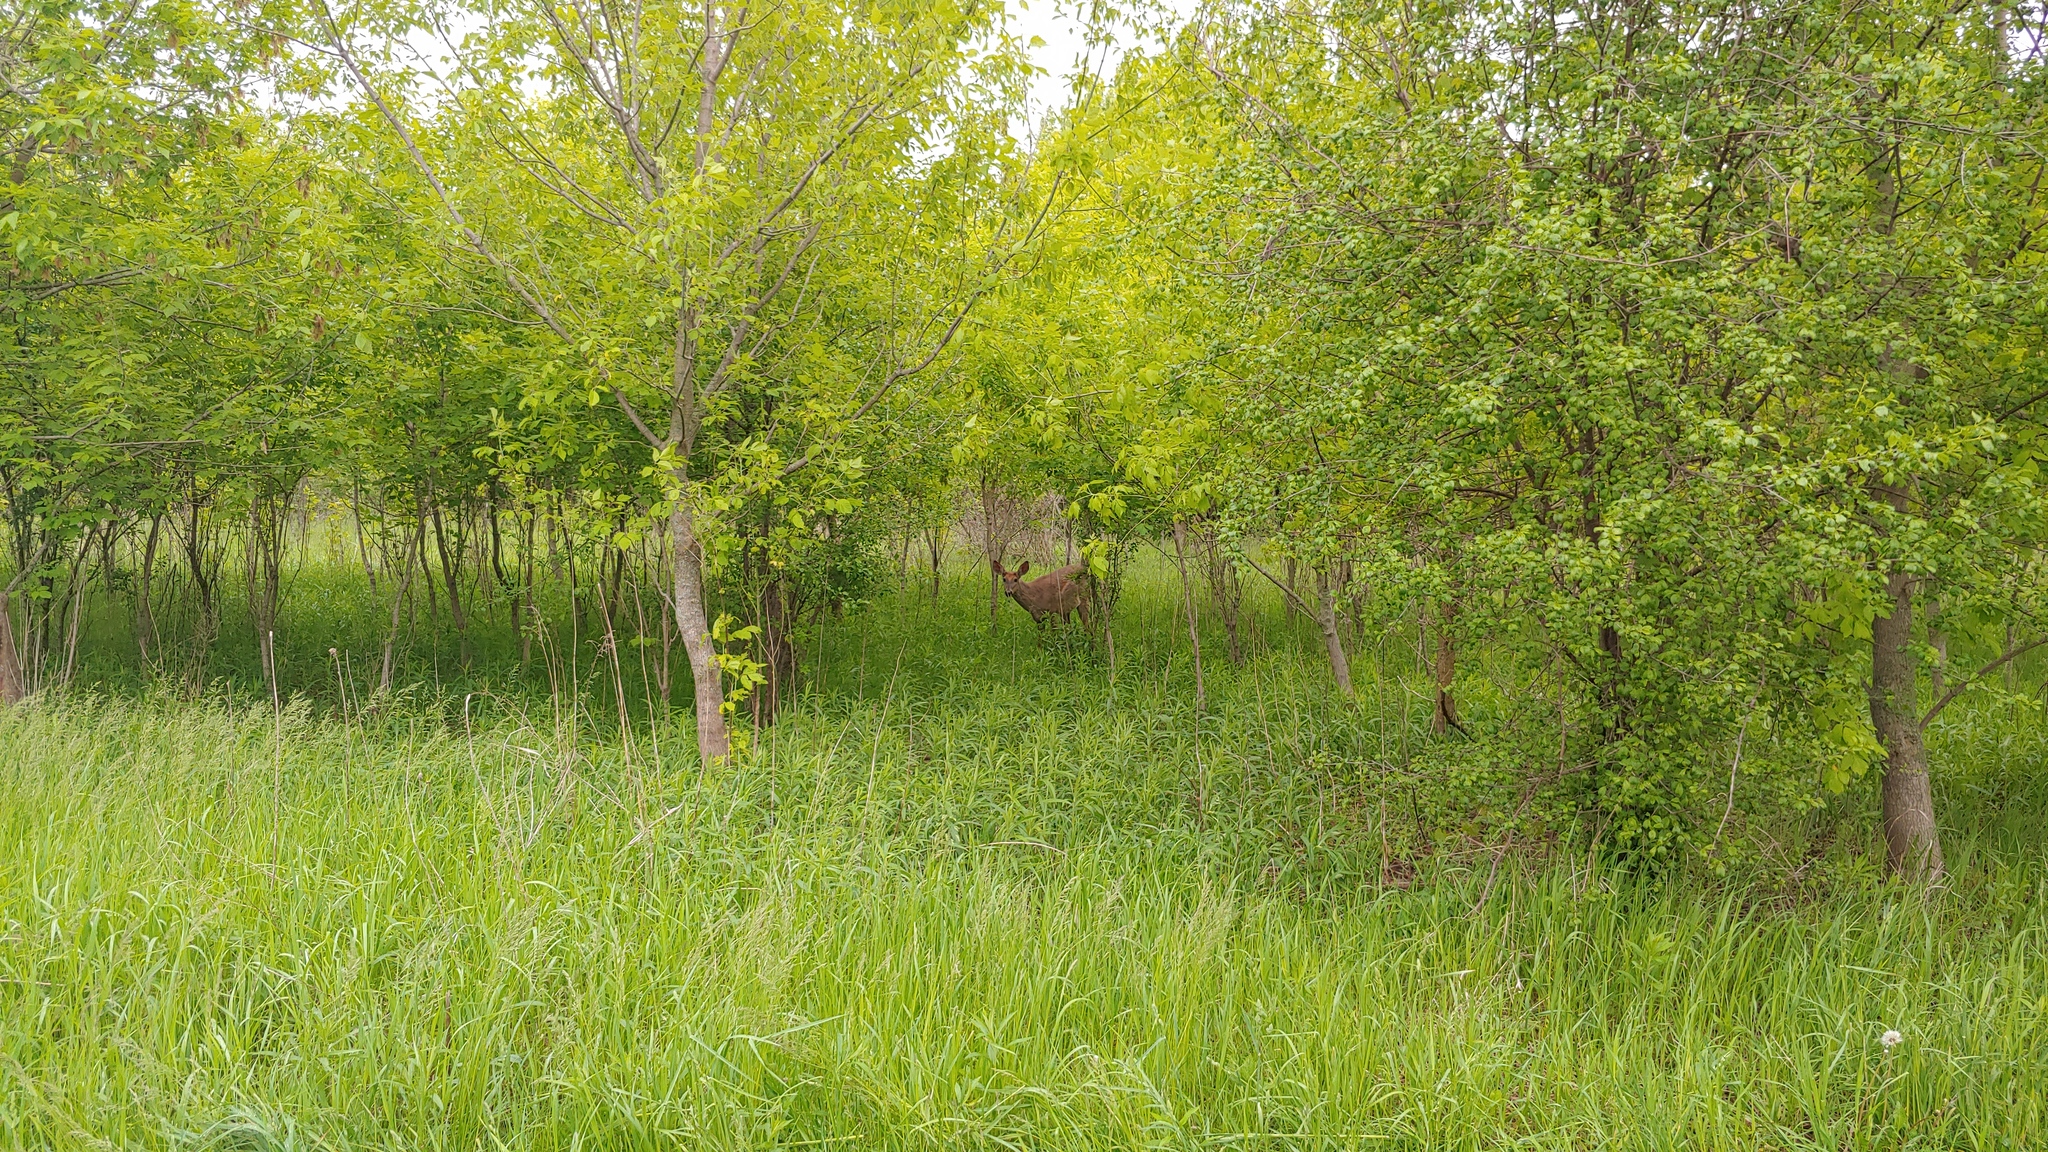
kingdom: Animalia
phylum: Chordata
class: Mammalia
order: Artiodactyla
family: Cervidae
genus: Odocoileus
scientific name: Odocoileus virginianus
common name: White-tailed deer
